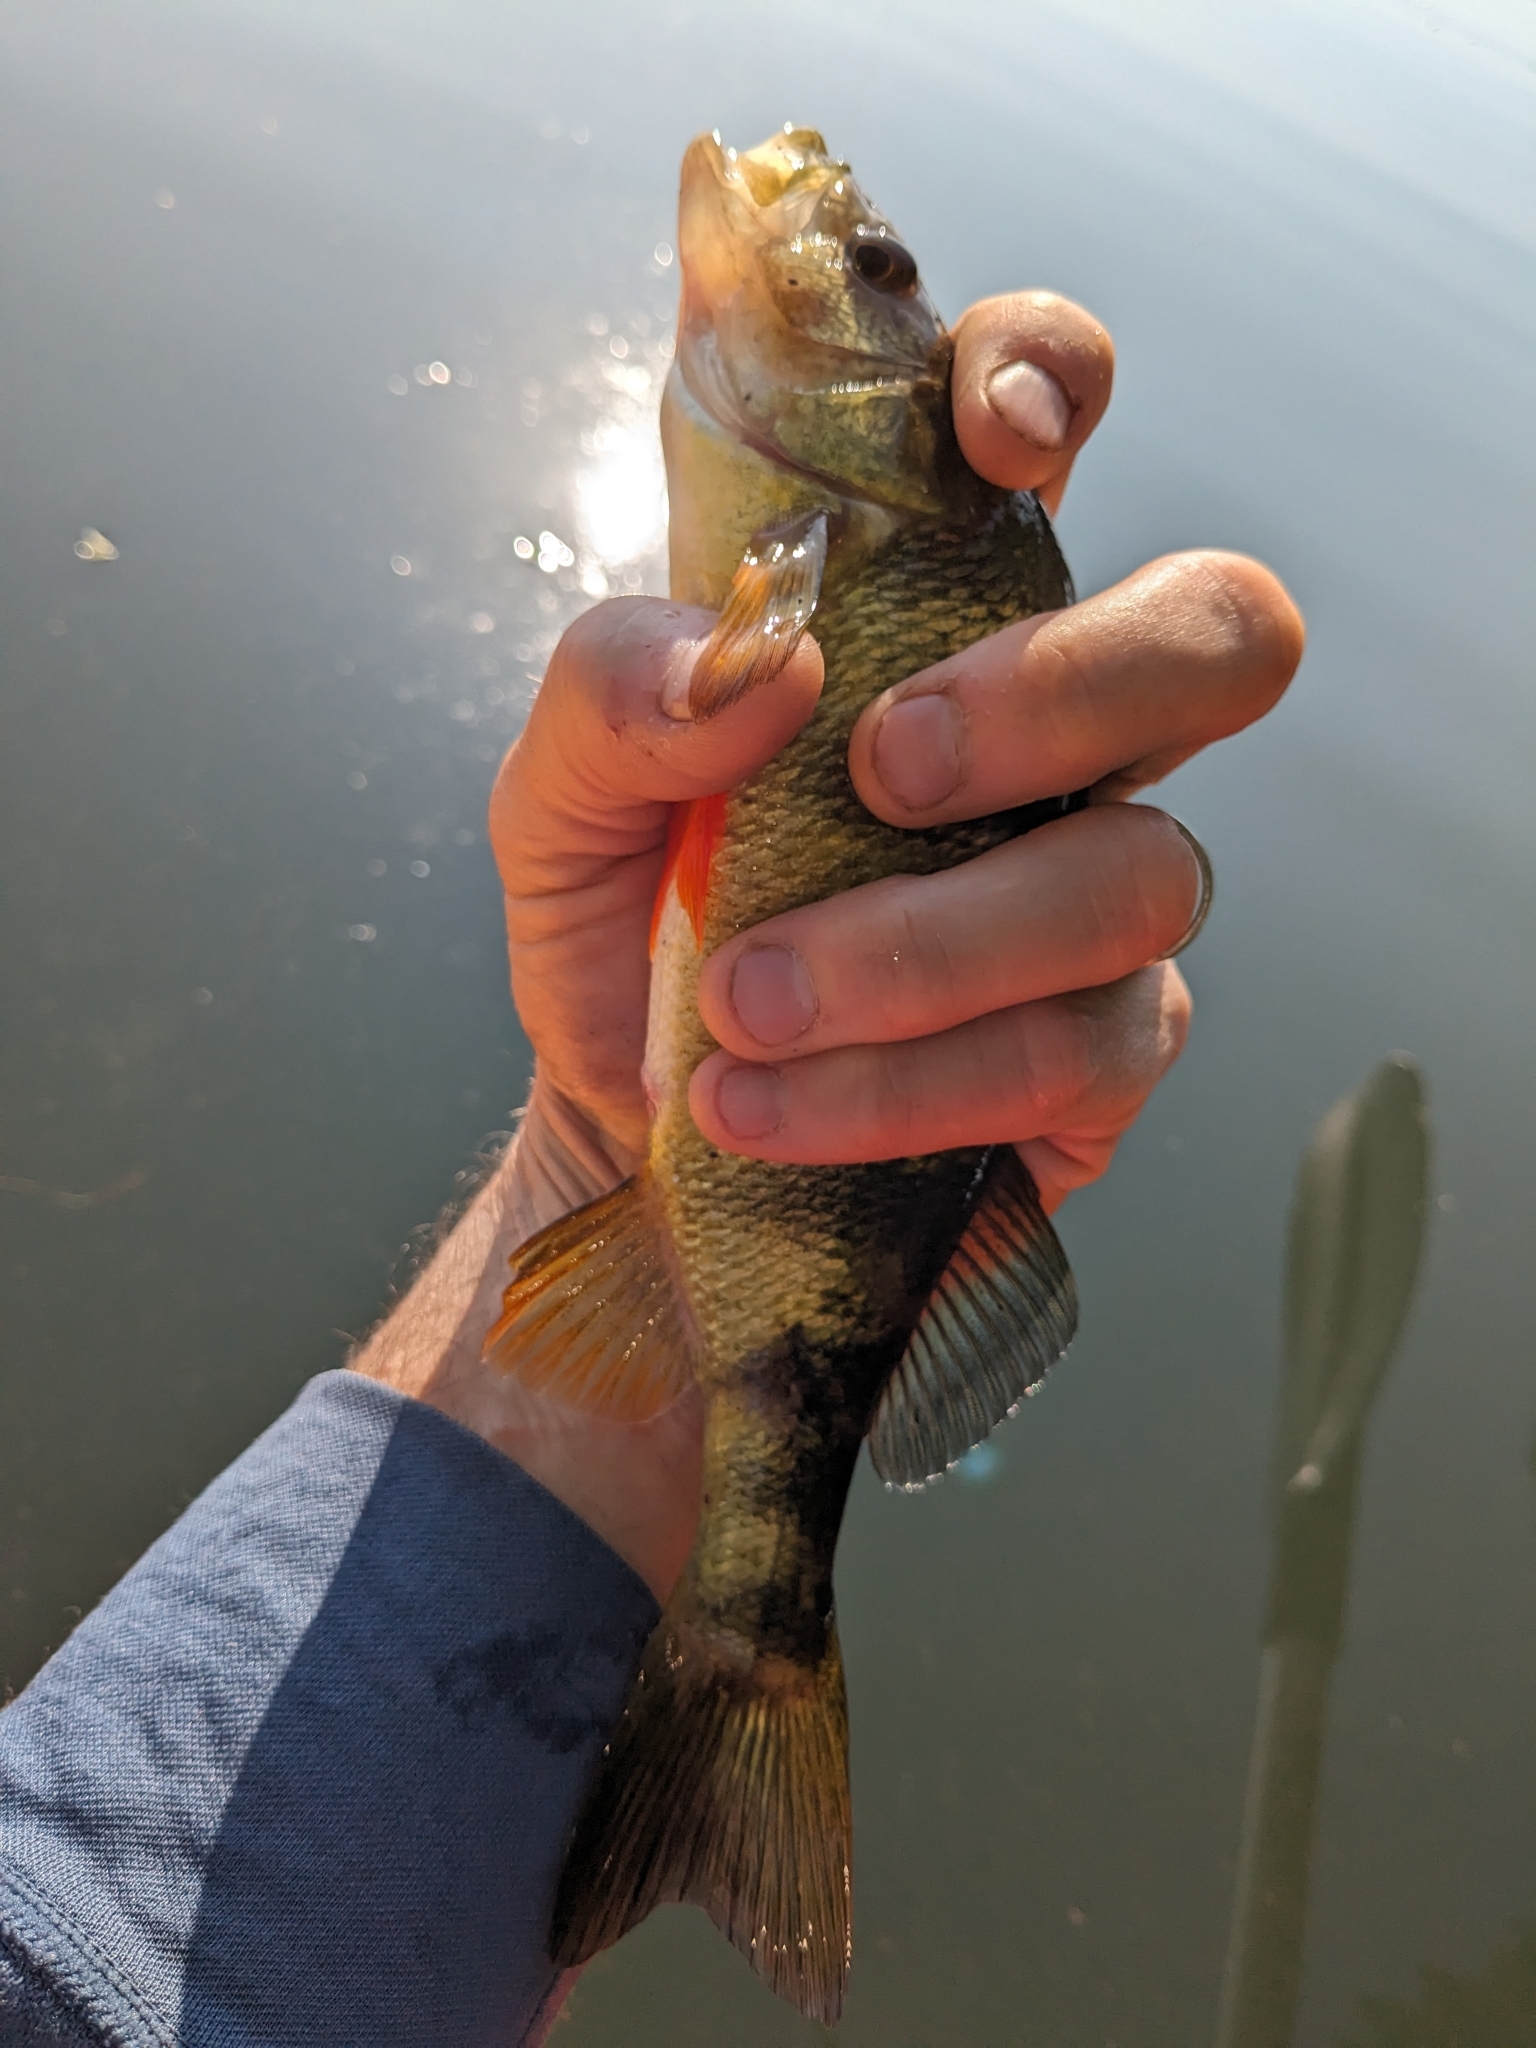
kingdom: Animalia
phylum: Chordata
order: Perciformes
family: Percidae
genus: Perca
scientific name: Perca flavescens
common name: Yellow perch
